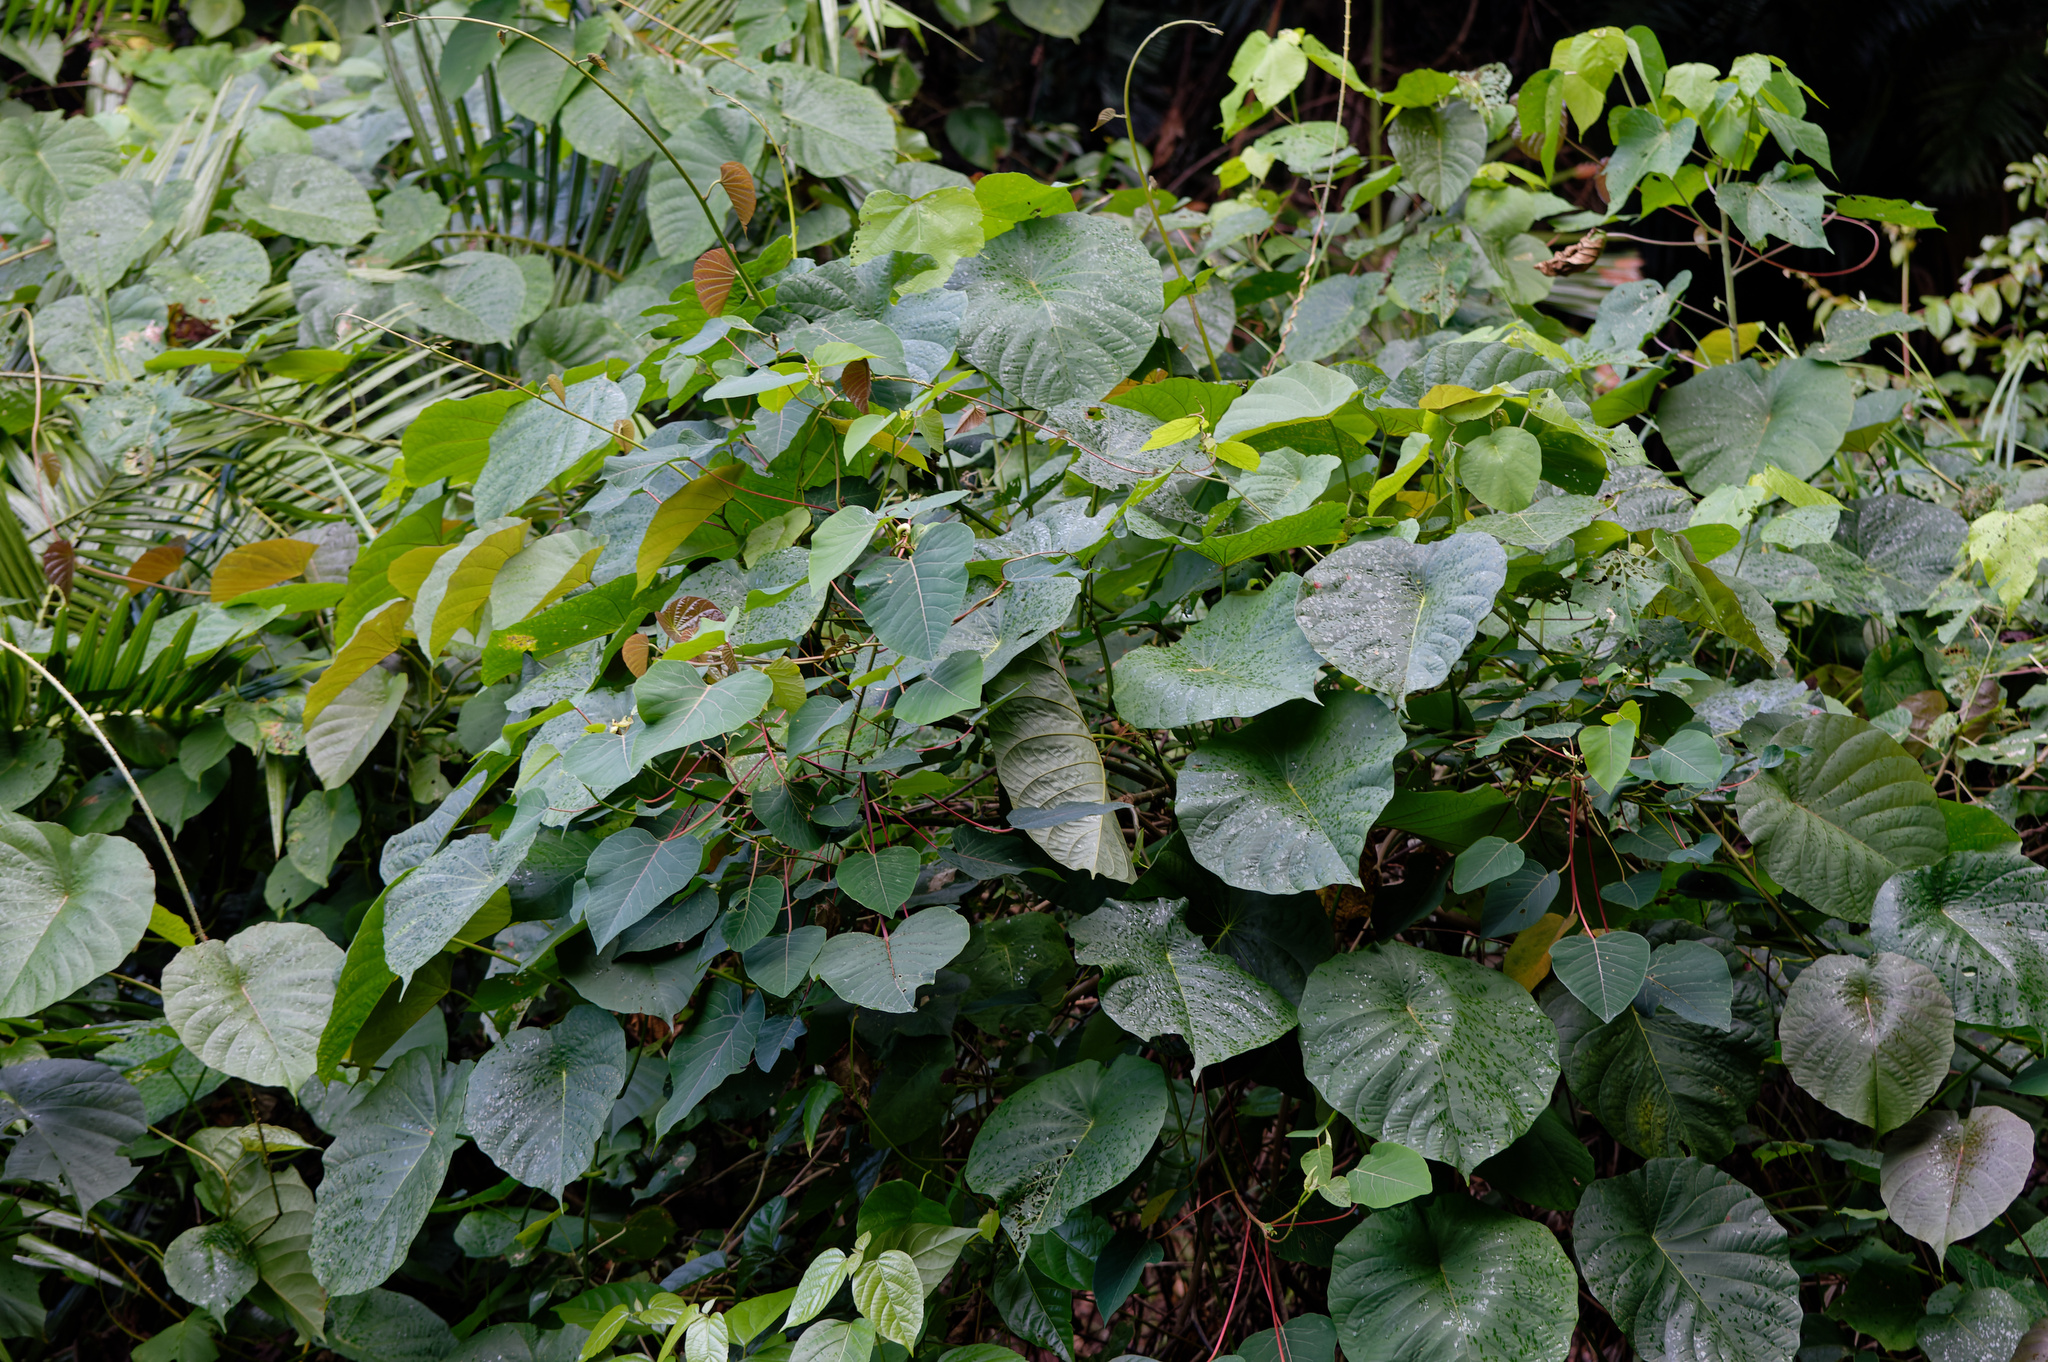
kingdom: Plantae
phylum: Tracheophyta
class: Magnoliopsida
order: Solanales
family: Convolvulaceae
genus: Decalobanthus
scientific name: Decalobanthus peltatus
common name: Merremia
